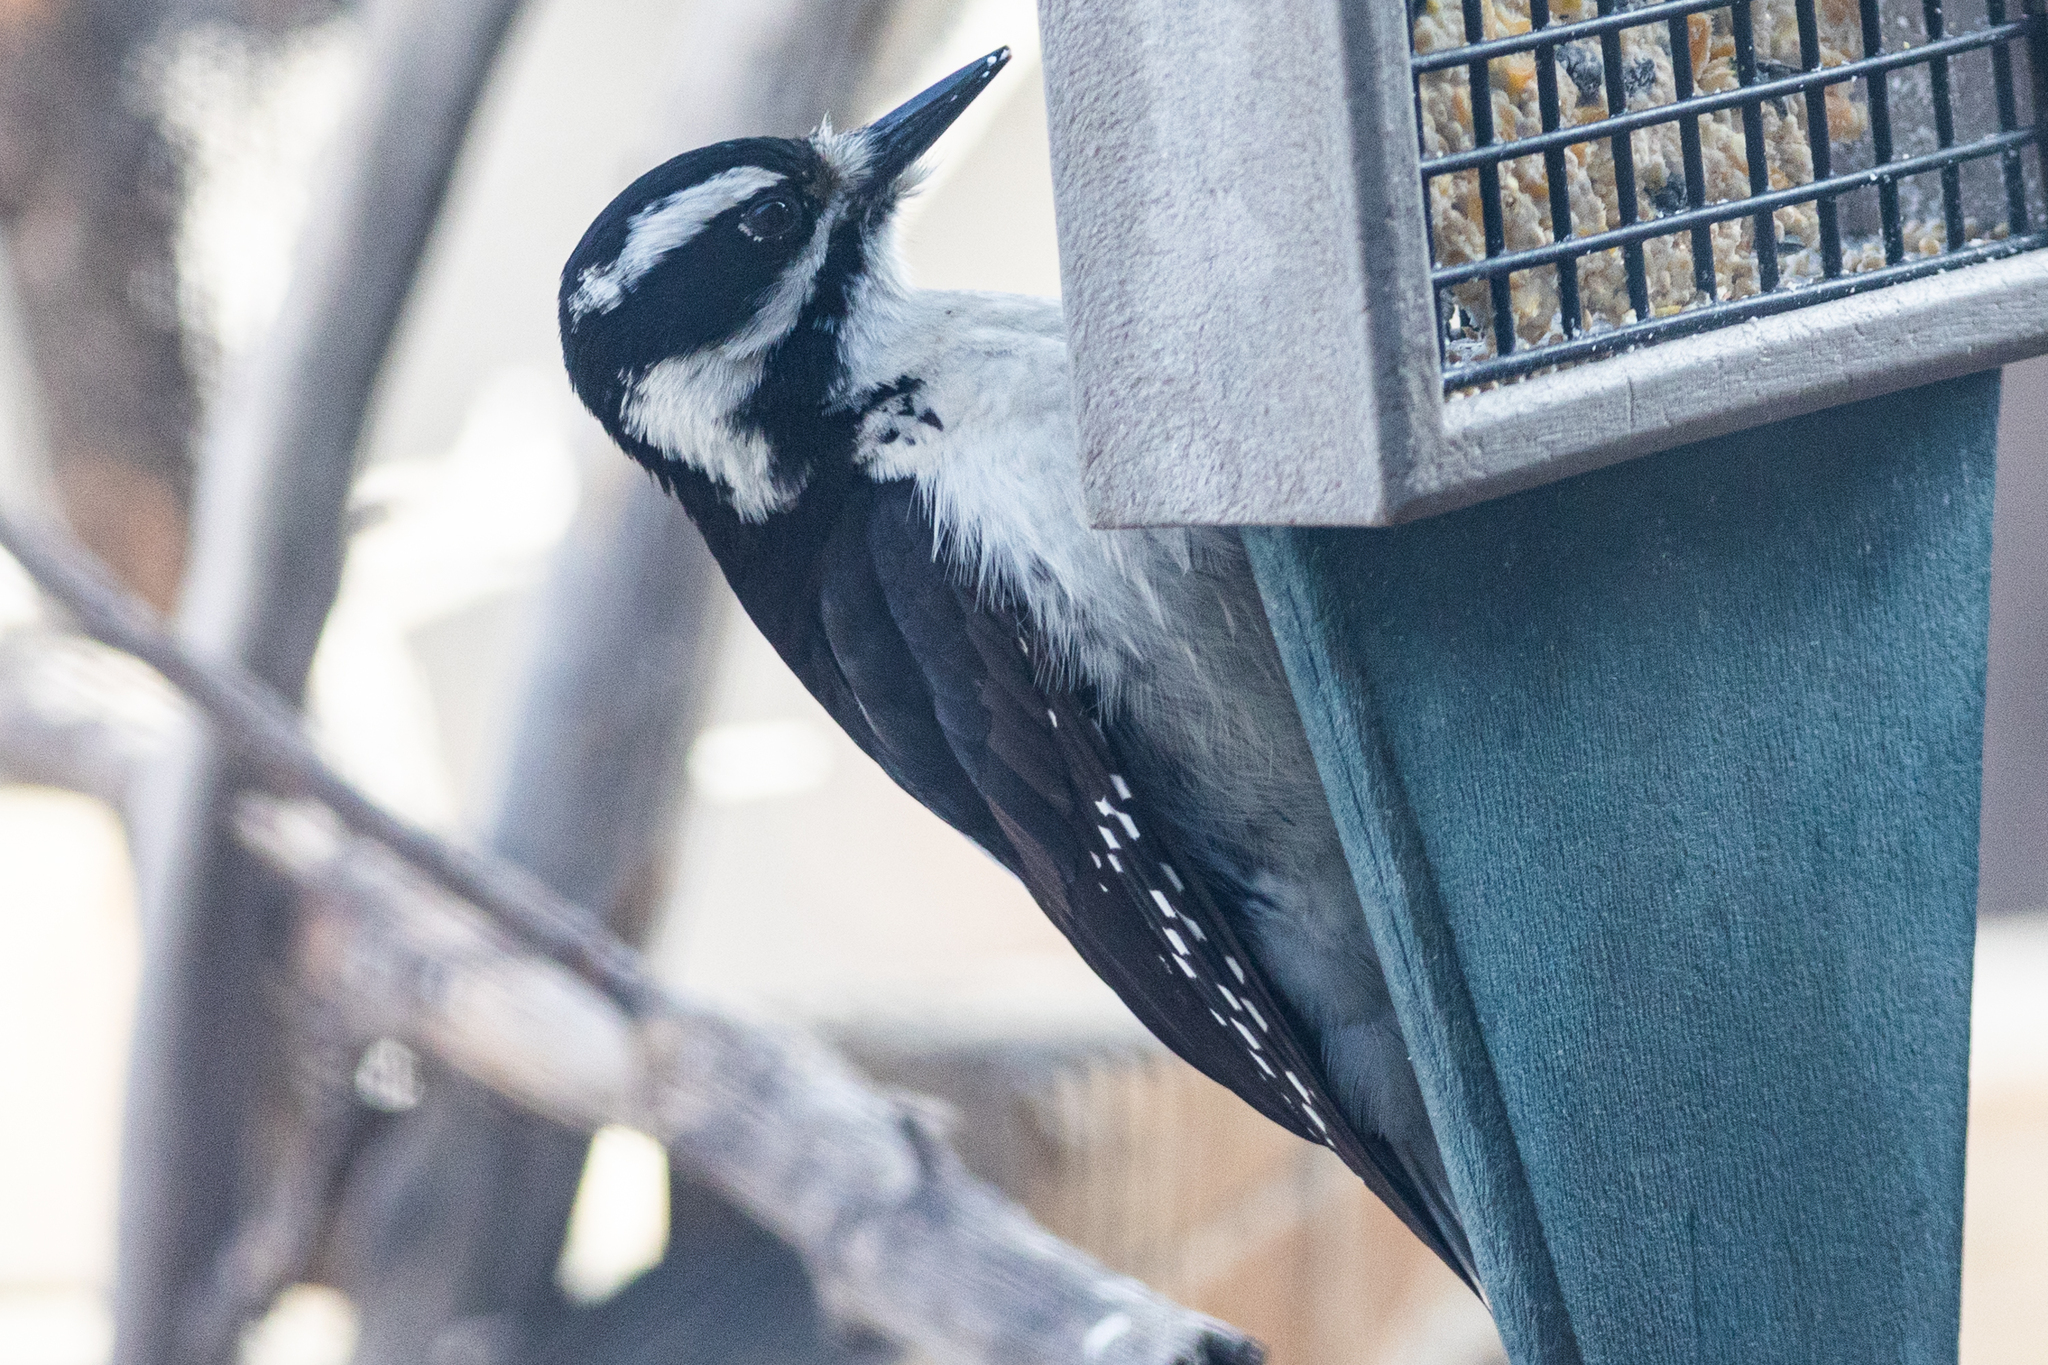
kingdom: Animalia
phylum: Chordata
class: Aves
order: Piciformes
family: Picidae
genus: Leuconotopicus
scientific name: Leuconotopicus villosus
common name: Hairy woodpecker
